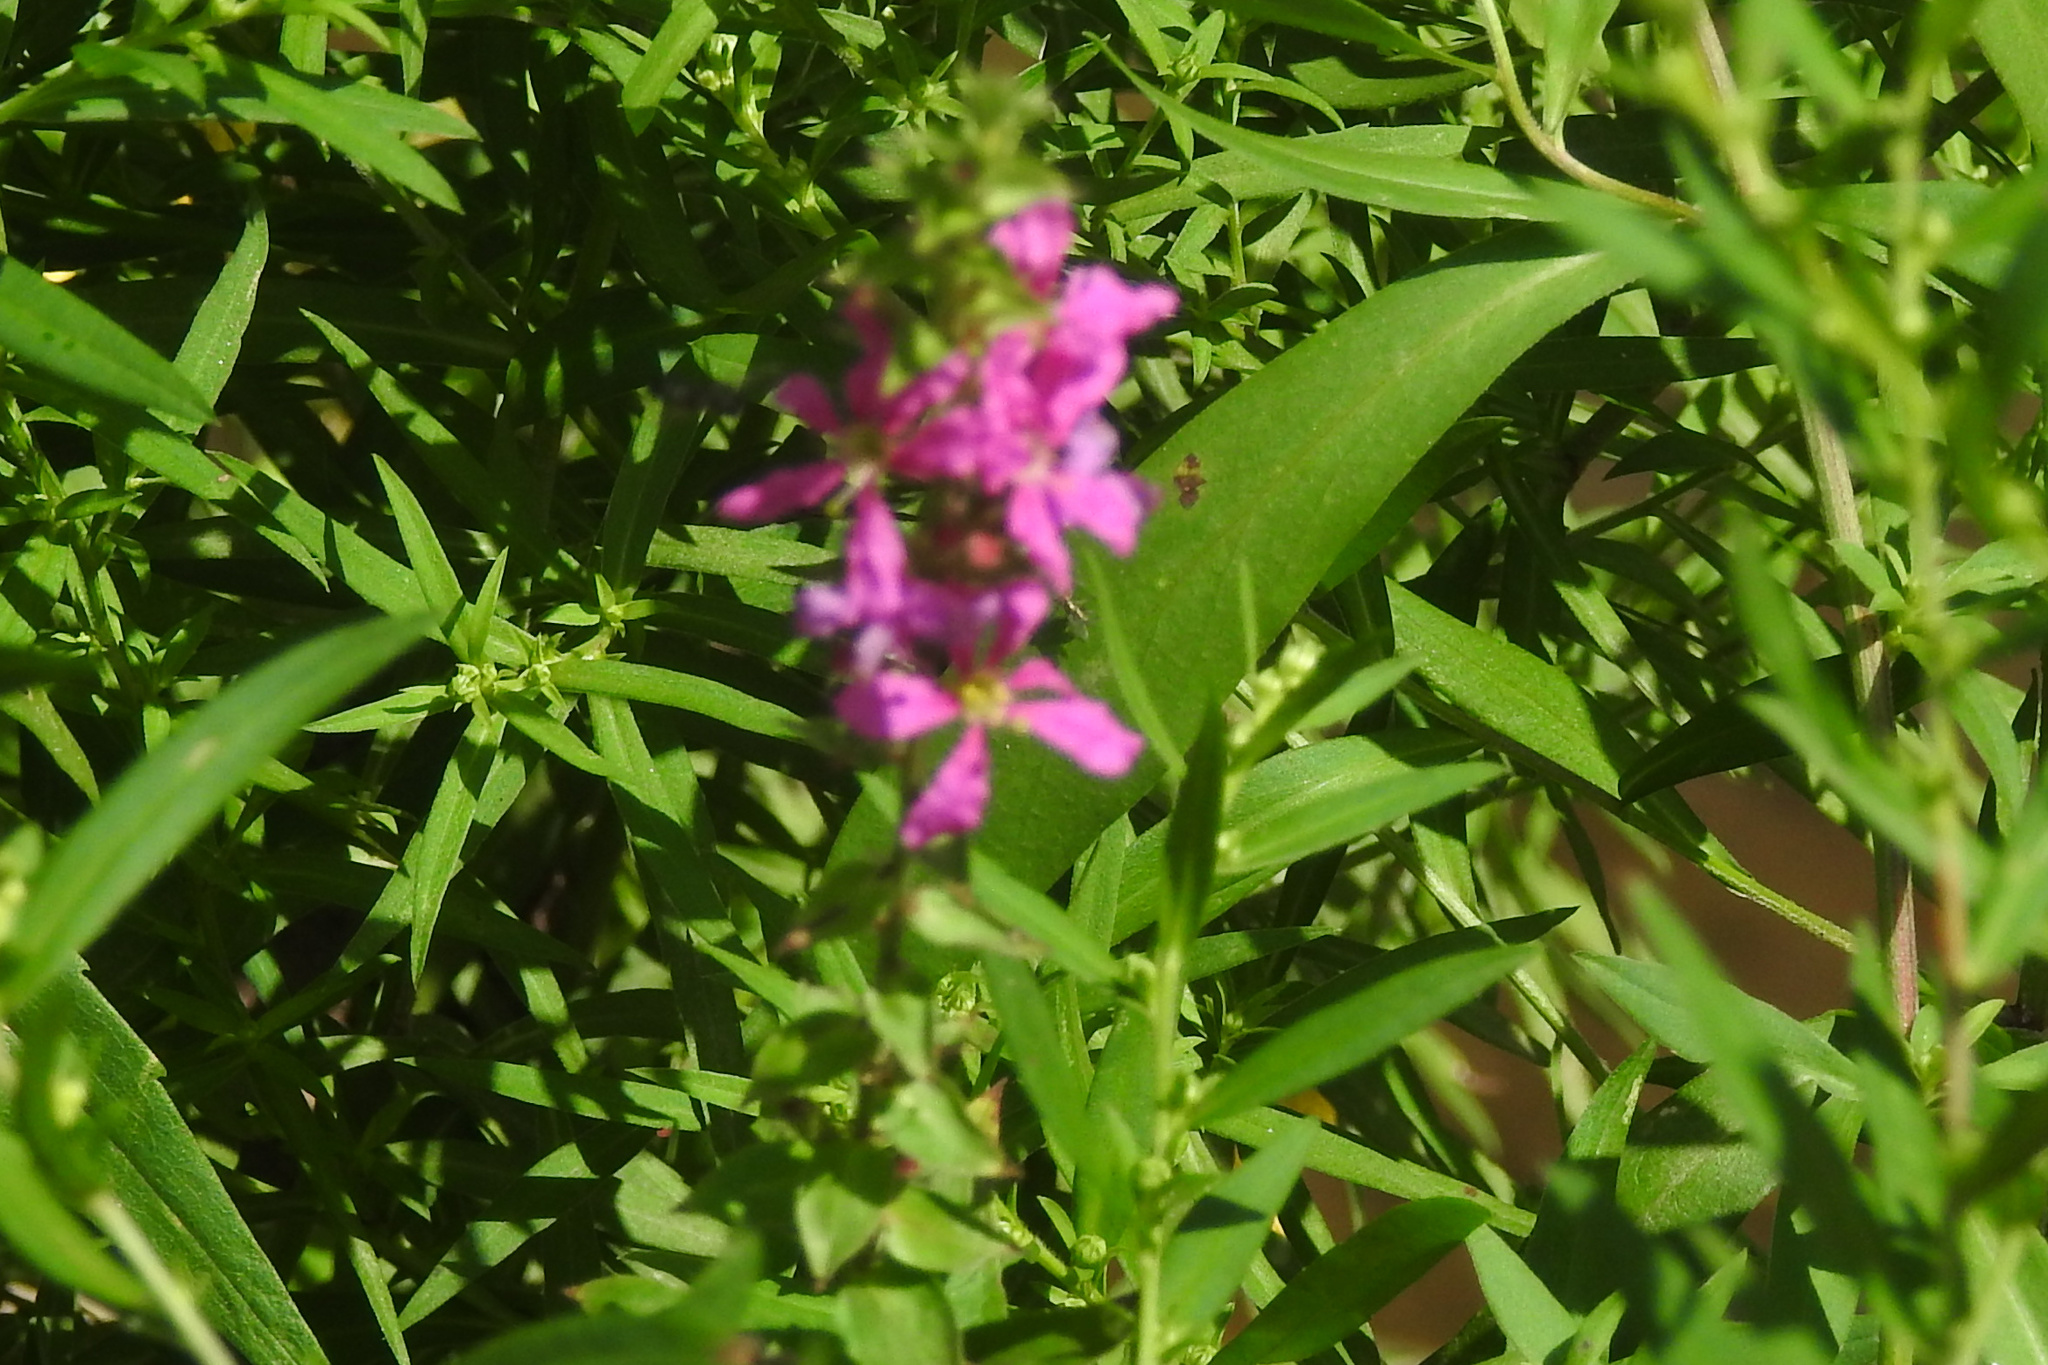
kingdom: Plantae
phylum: Tracheophyta
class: Magnoliopsida
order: Myrtales
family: Lythraceae
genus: Lythrum
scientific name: Lythrum salicaria
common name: Purple loosestrife
